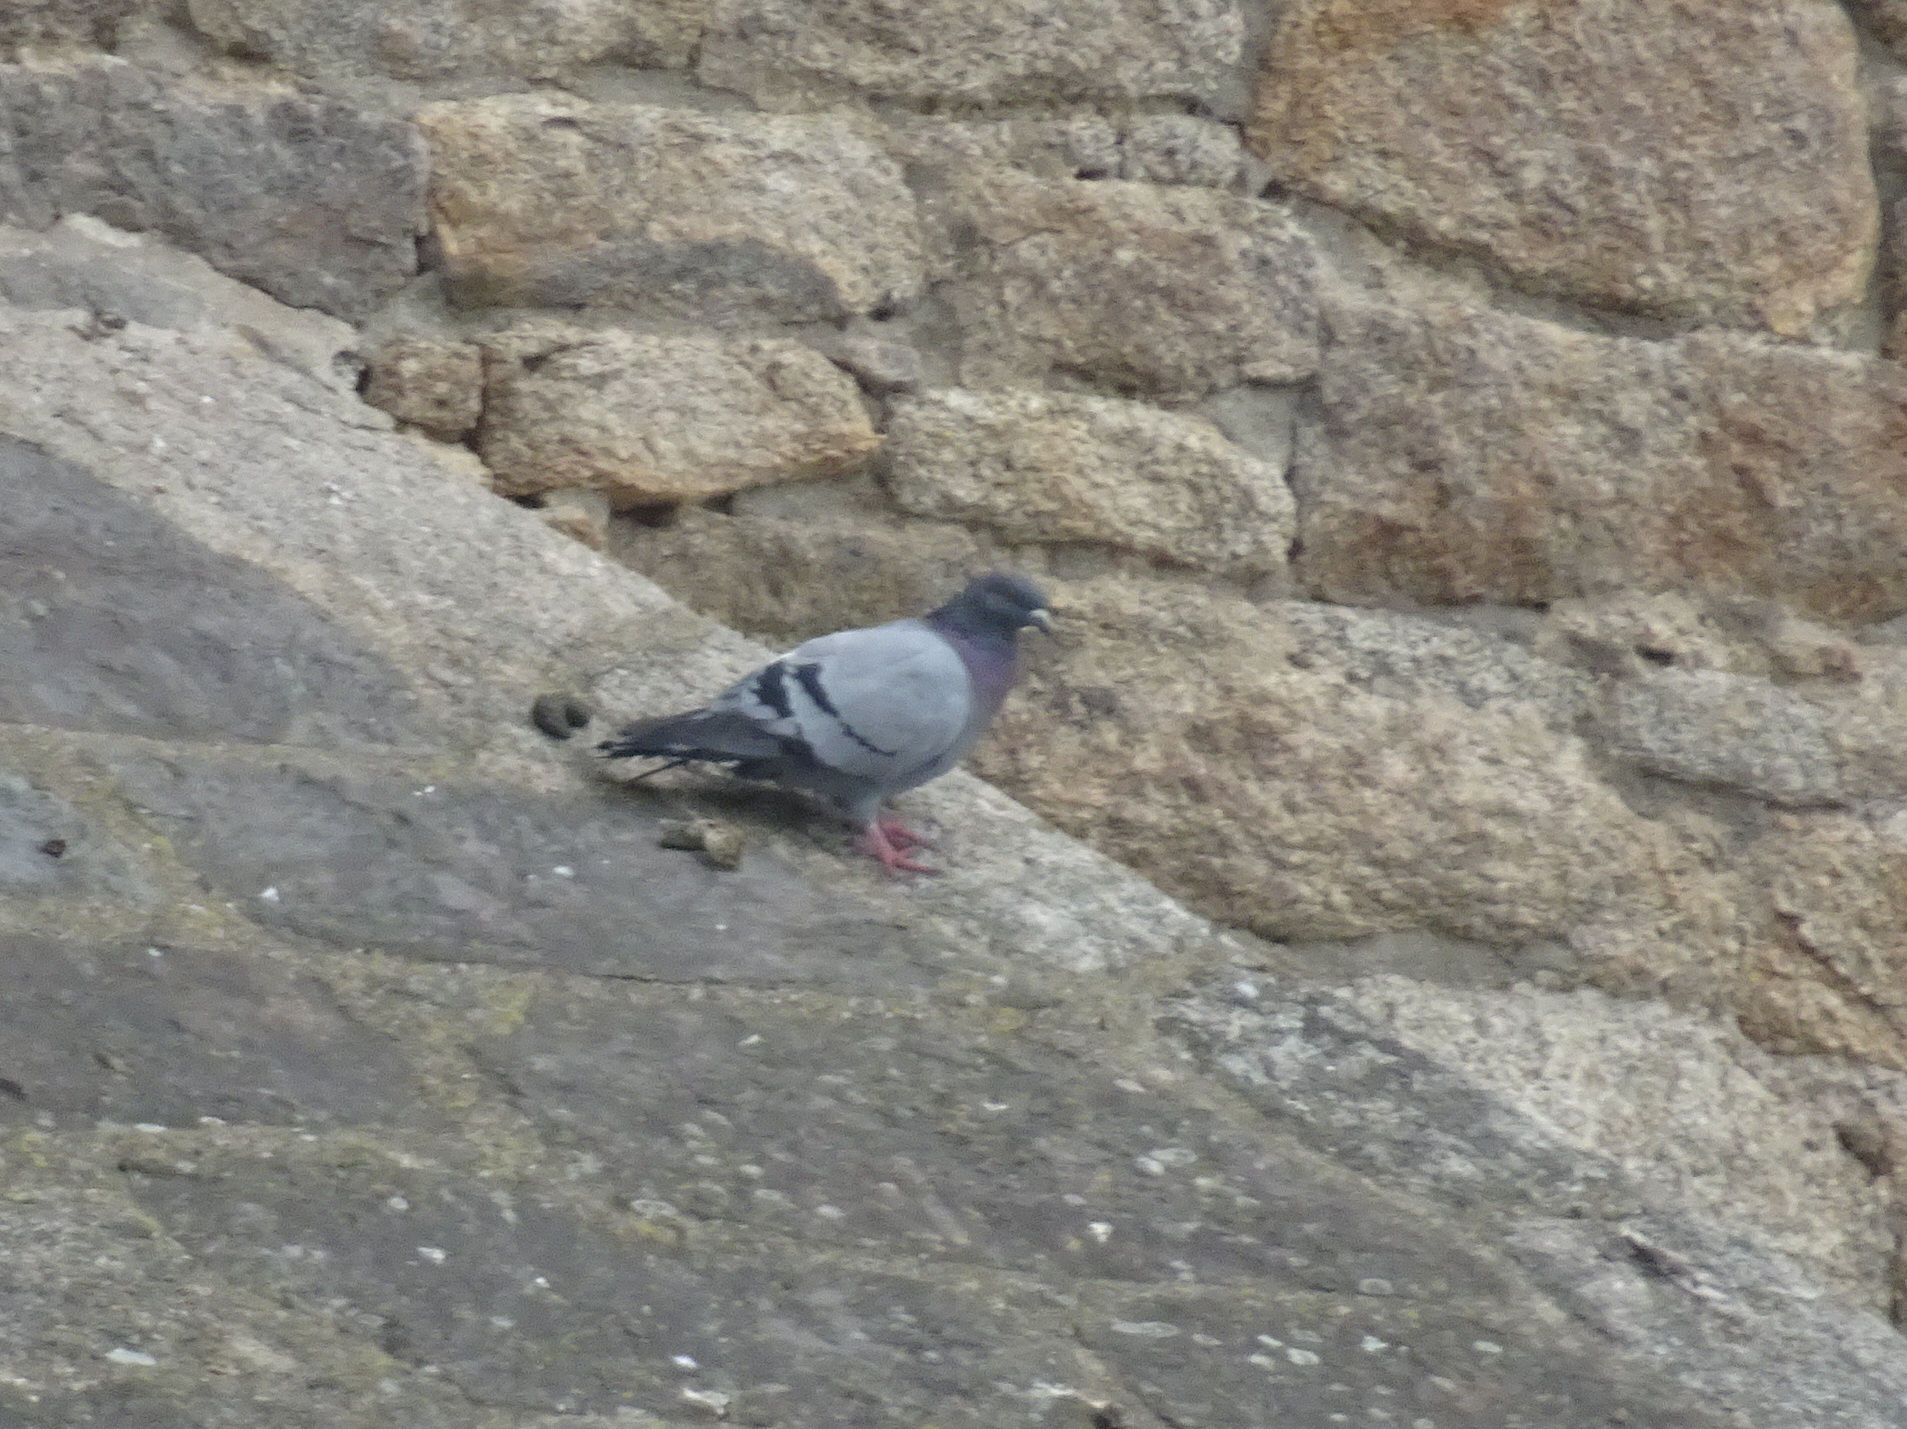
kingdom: Animalia
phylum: Chordata
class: Aves
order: Columbiformes
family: Columbidae
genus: Columba
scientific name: Columba livia
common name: Rock pigeon
